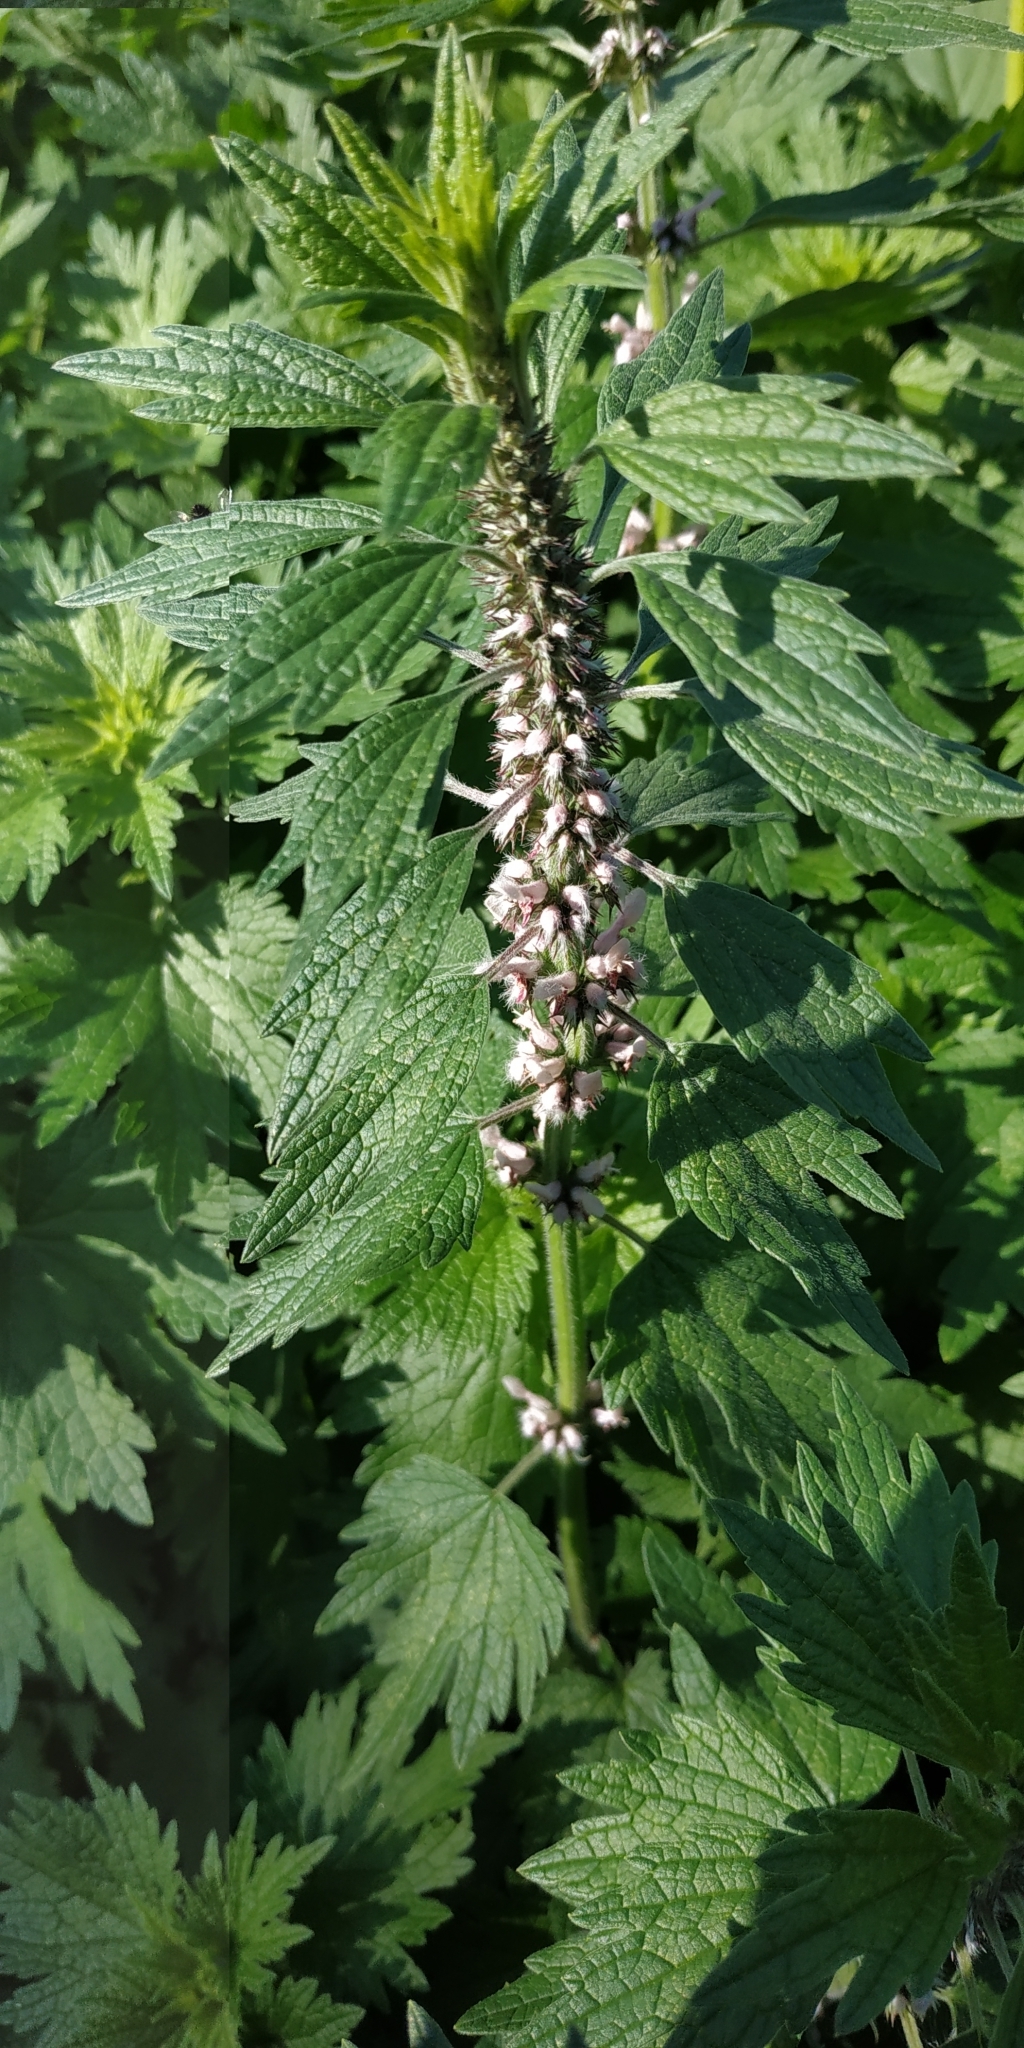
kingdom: Plantae
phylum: Tracheophyta
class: Magnoliopsida
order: Lamiales
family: Lamiaceae
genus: Leonurus
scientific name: Leonurus quinquelobatus
